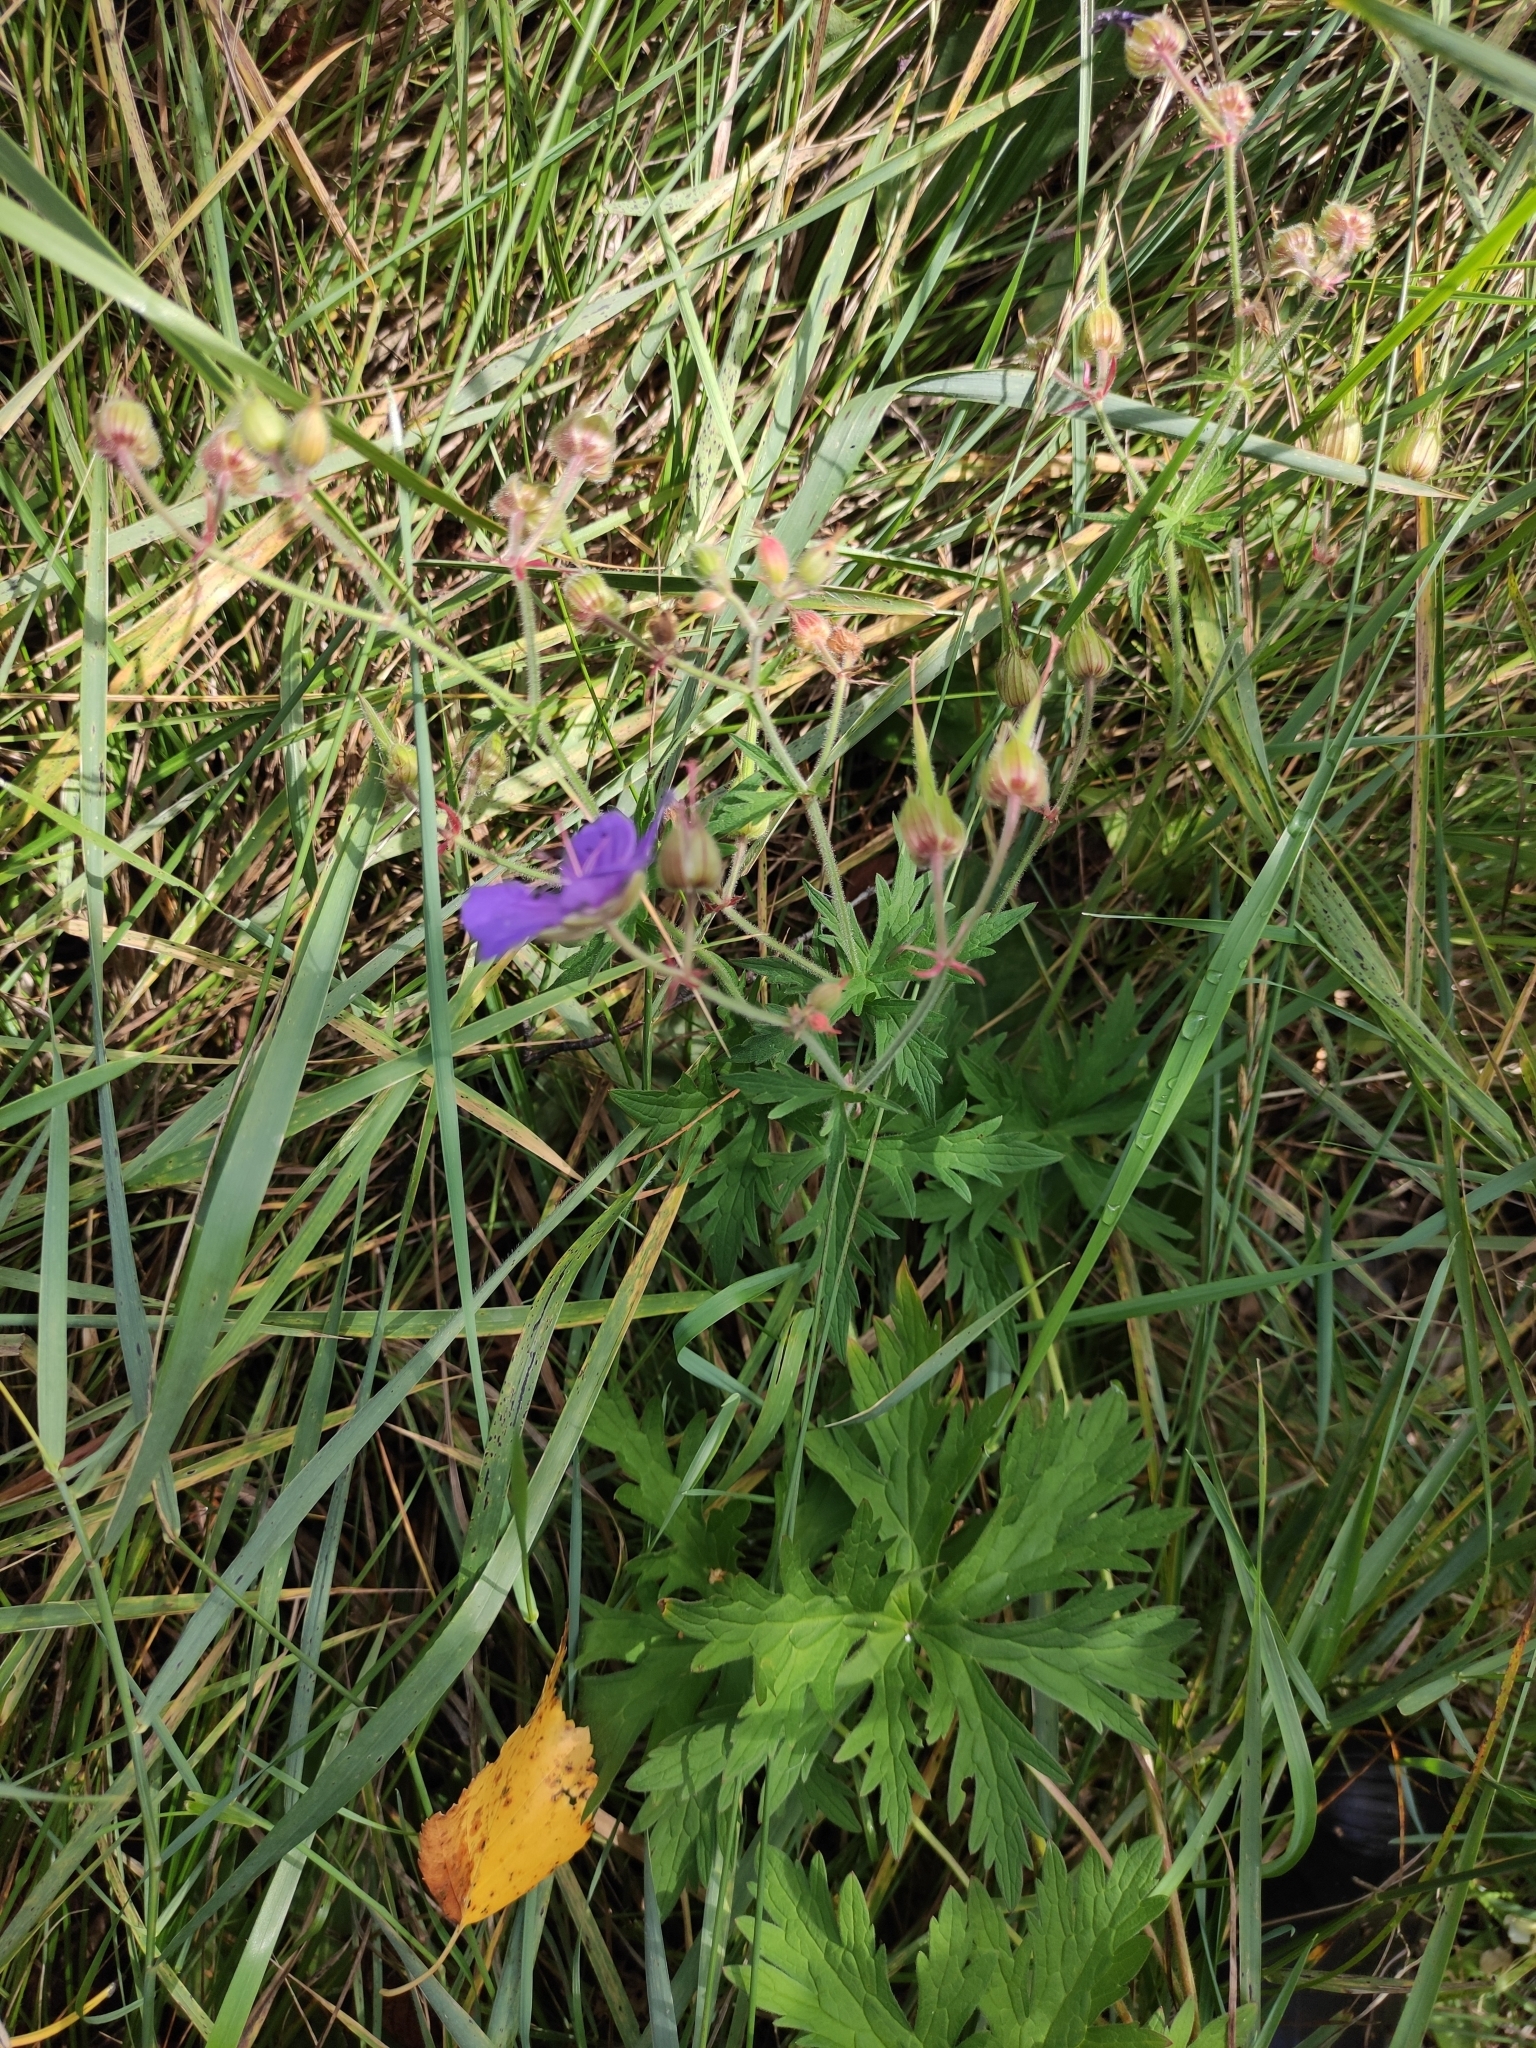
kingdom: Plantae
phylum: Tracheophyta
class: Magnoliopsida
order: Geraniales
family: Geraniaceae
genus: Geranium
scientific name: Geranium pratense
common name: Meadow crane's-bill
